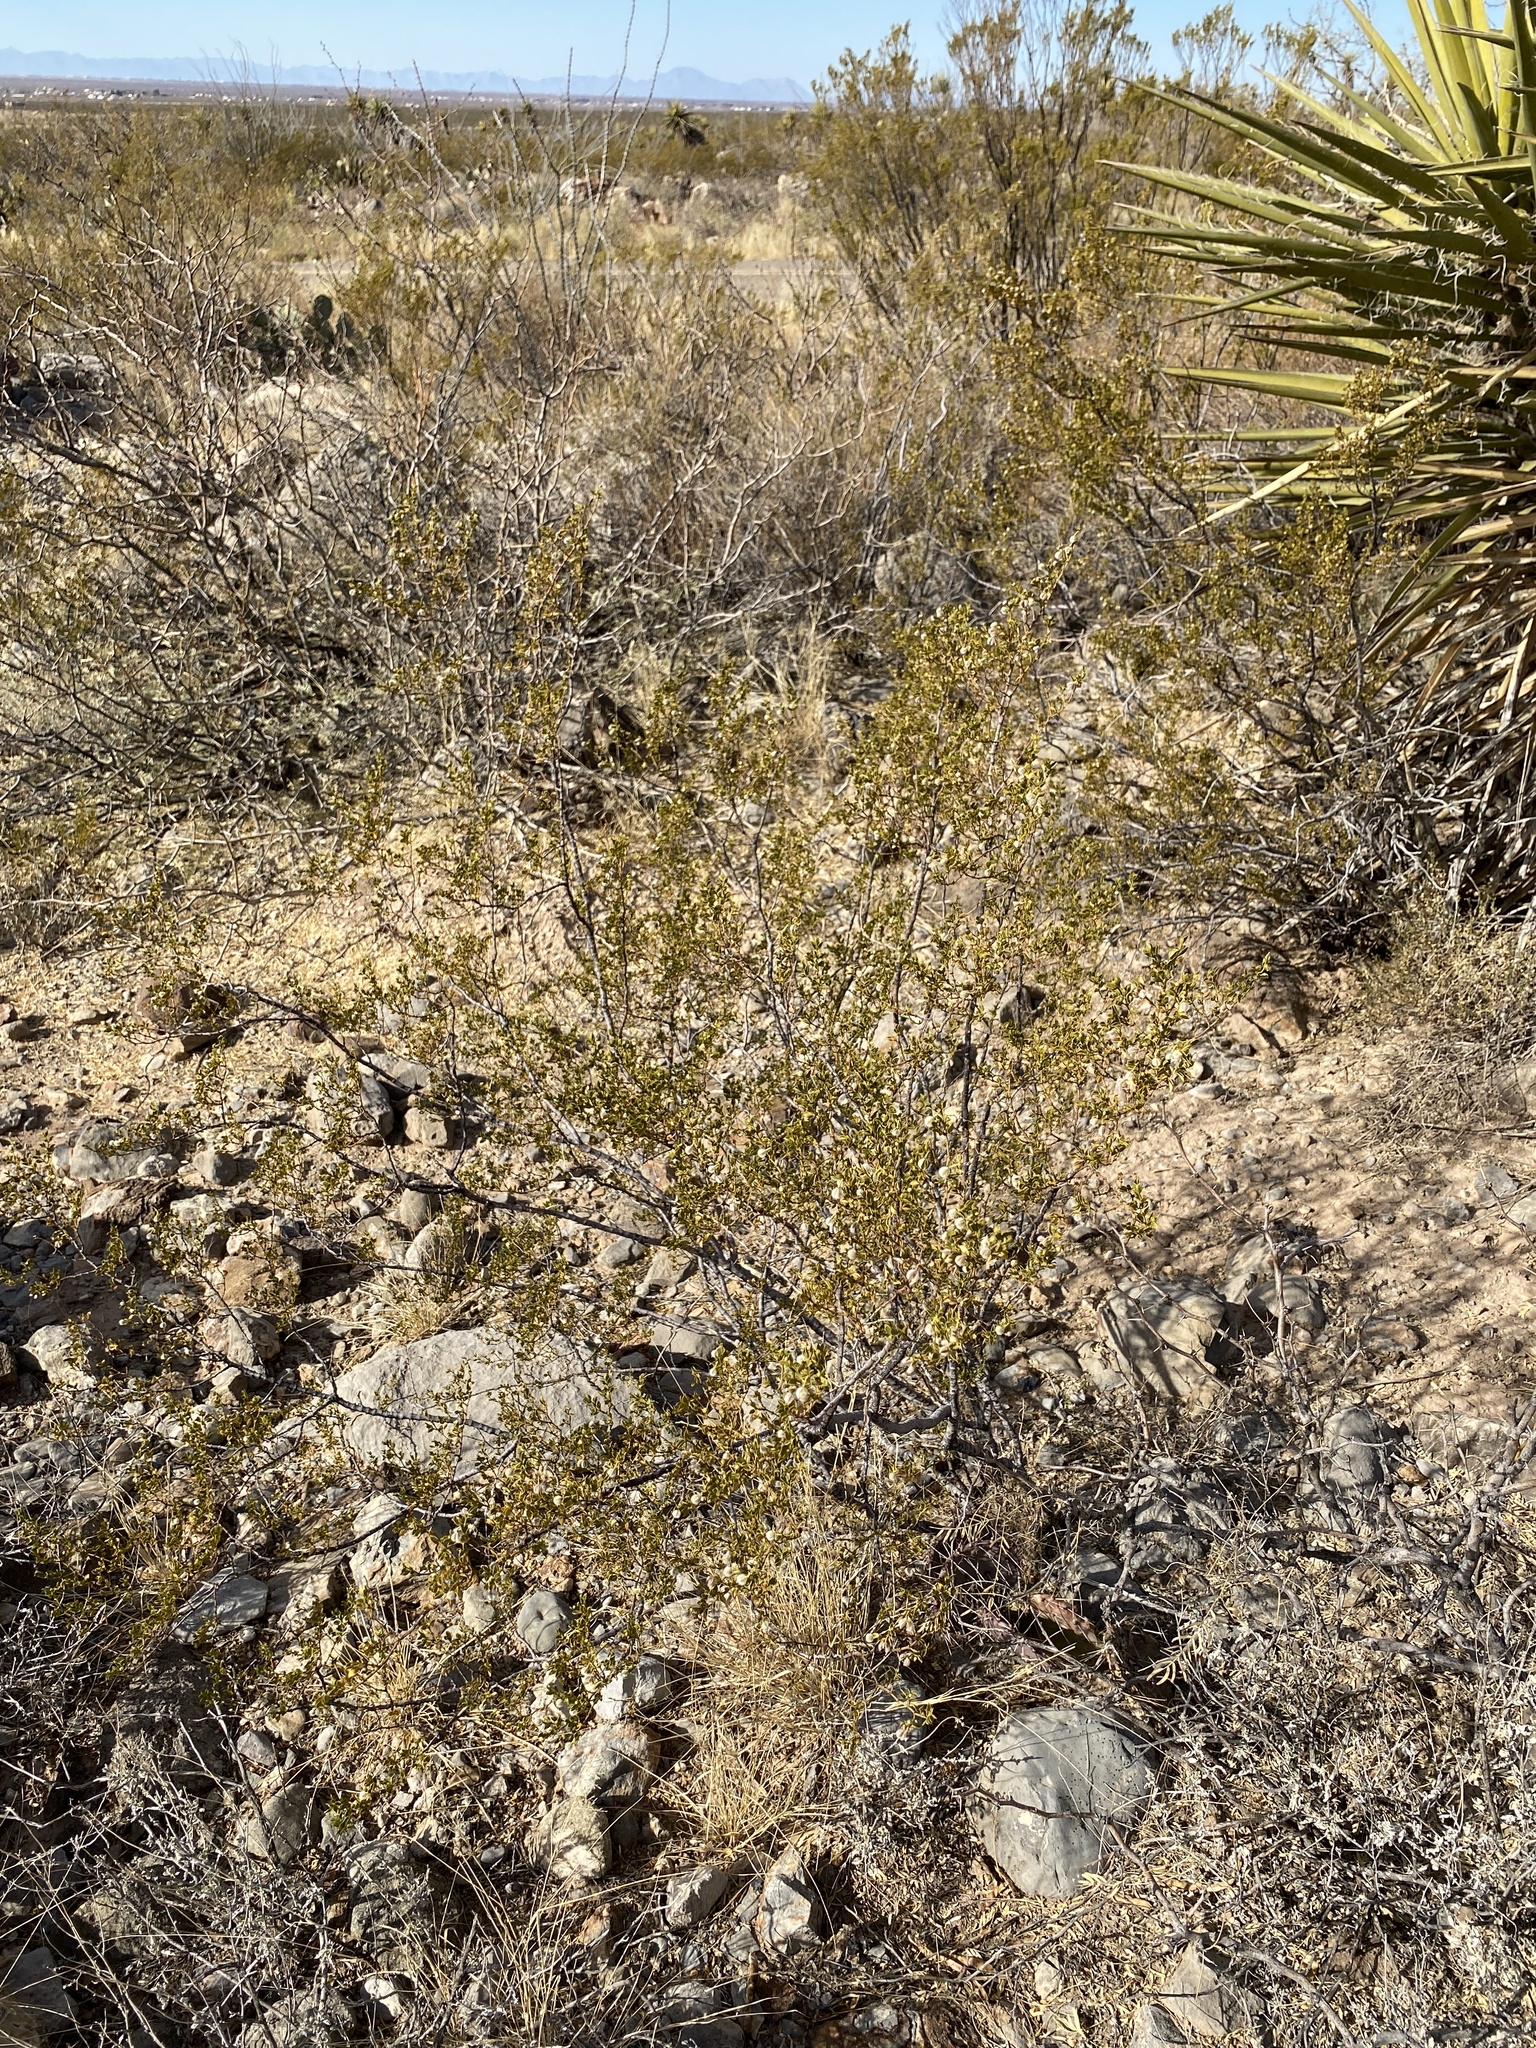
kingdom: Plantae
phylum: Tracheophyta
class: Magnoliopsida
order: Zygophyllales
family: Zygophyllaceae
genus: Larrea
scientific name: Larrea tridentata
